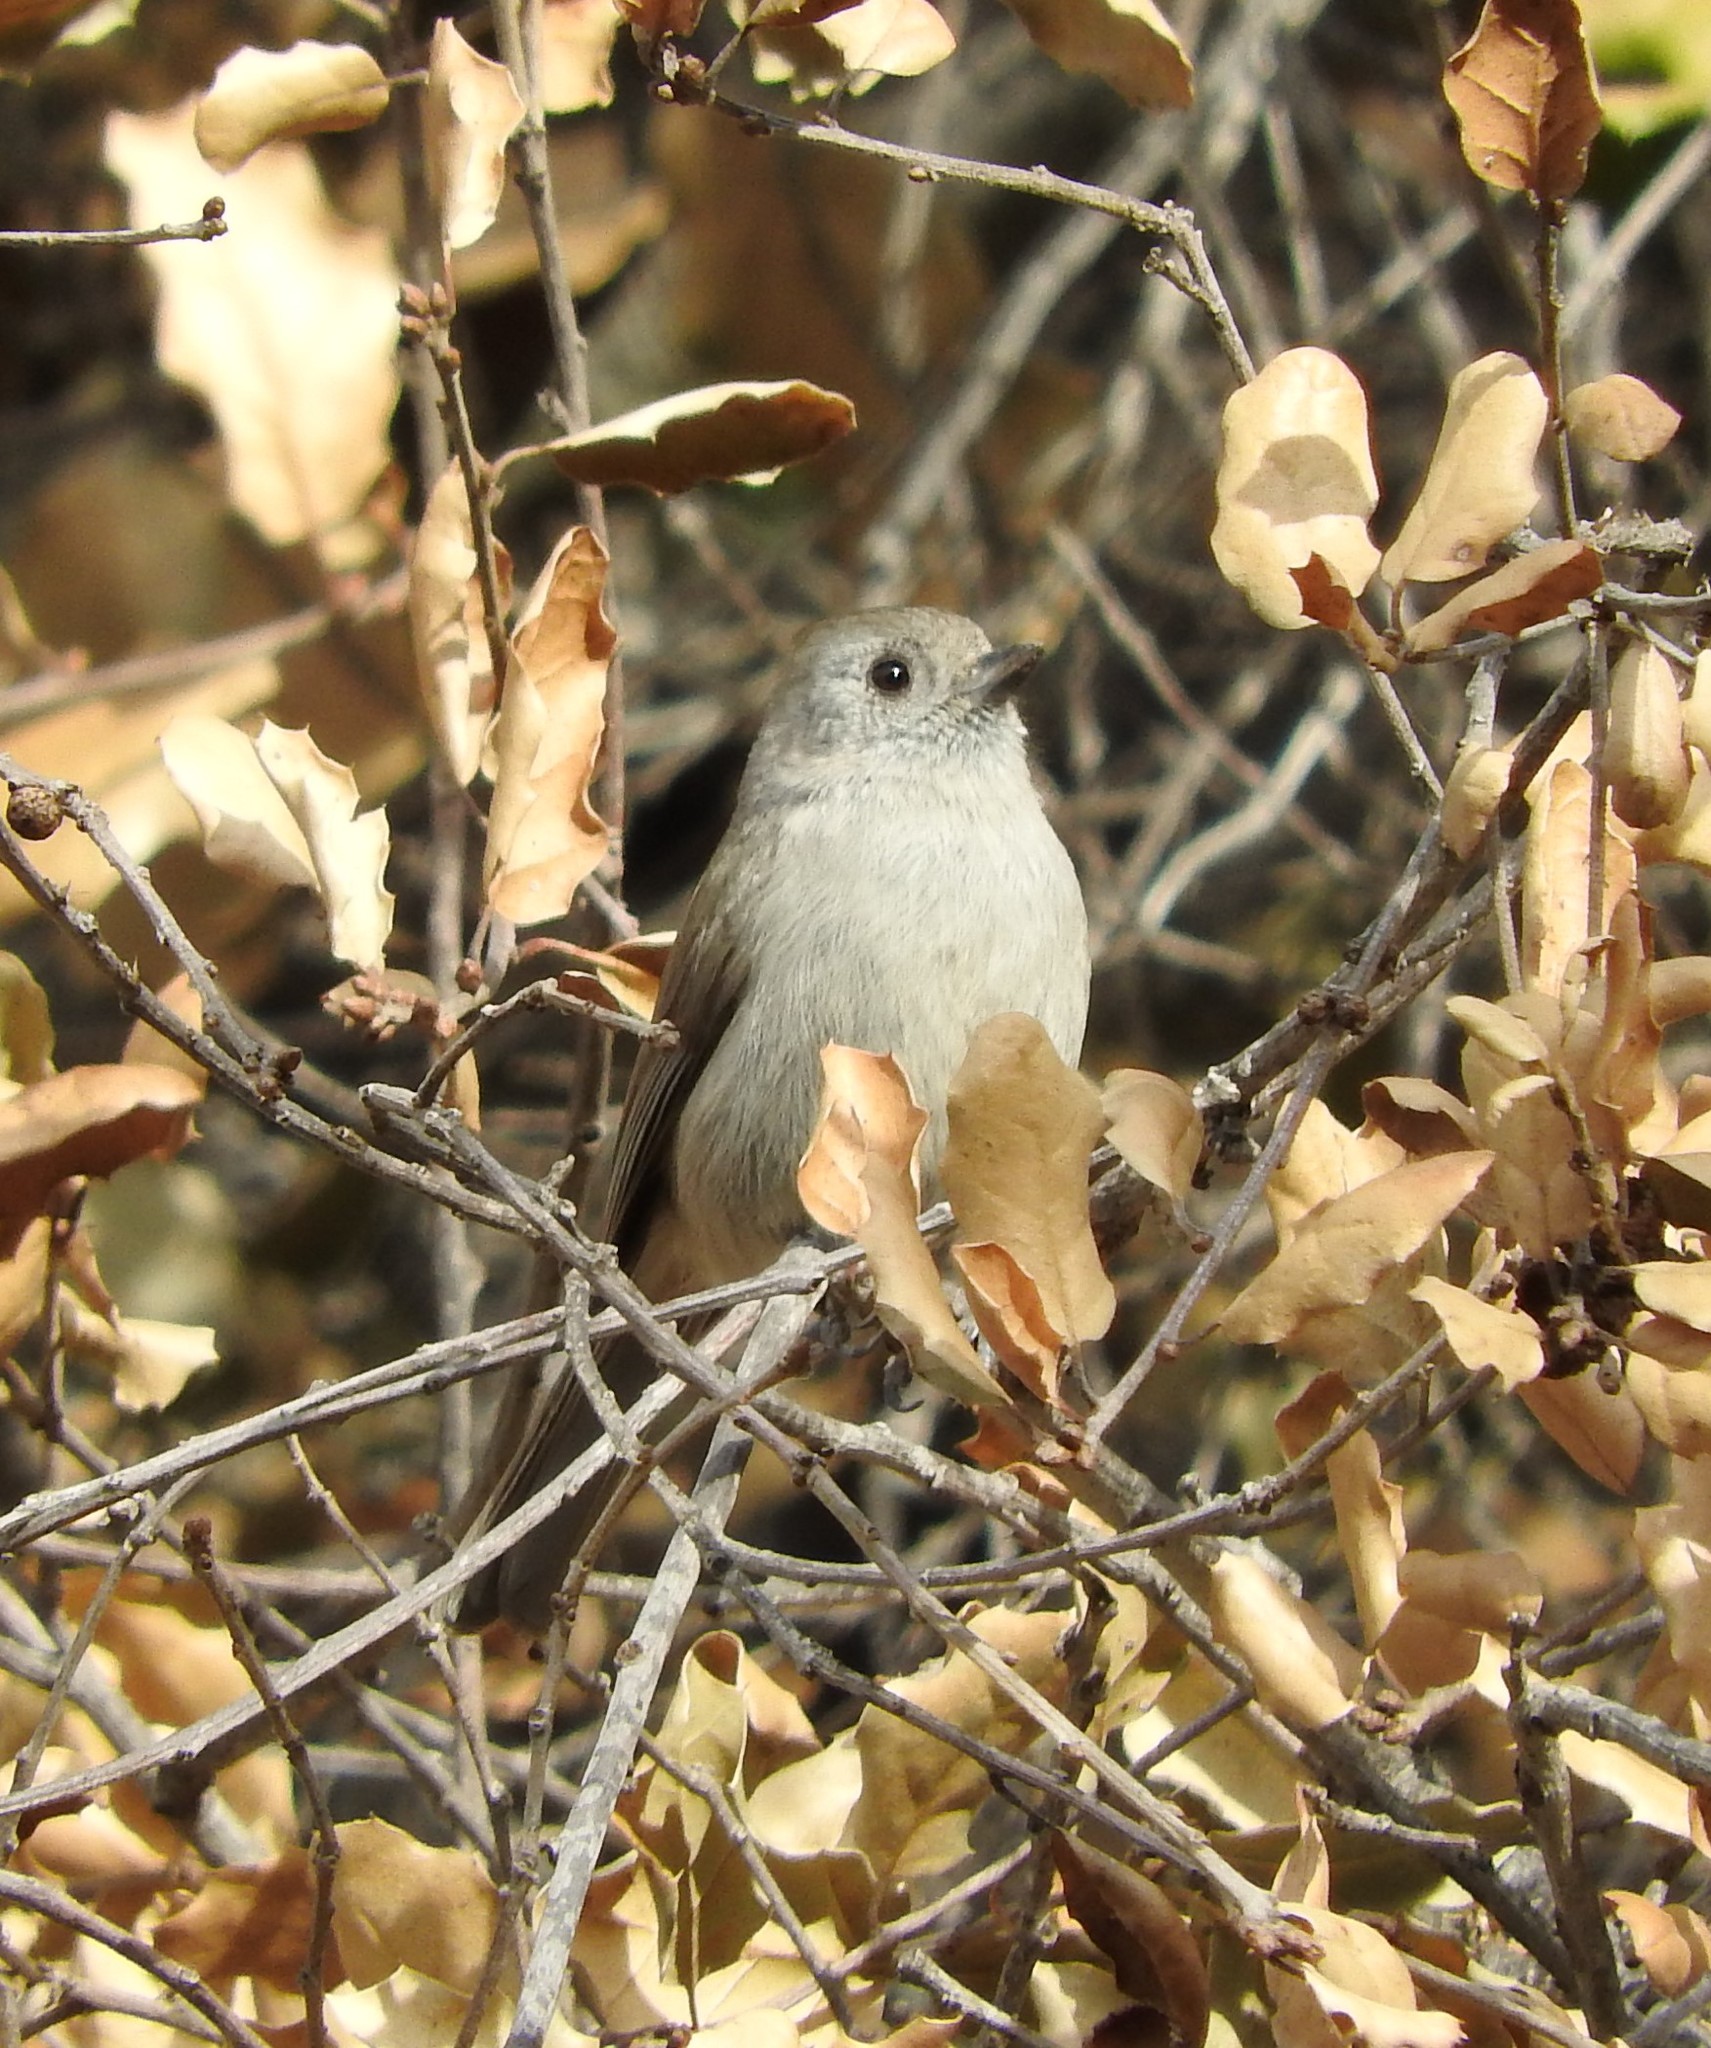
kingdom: Animalia
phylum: Chordata
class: Aves
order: Passeriformes
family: Paridae
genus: Baeolophus
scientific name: Baeolophus inornatus
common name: Oak titmouse
